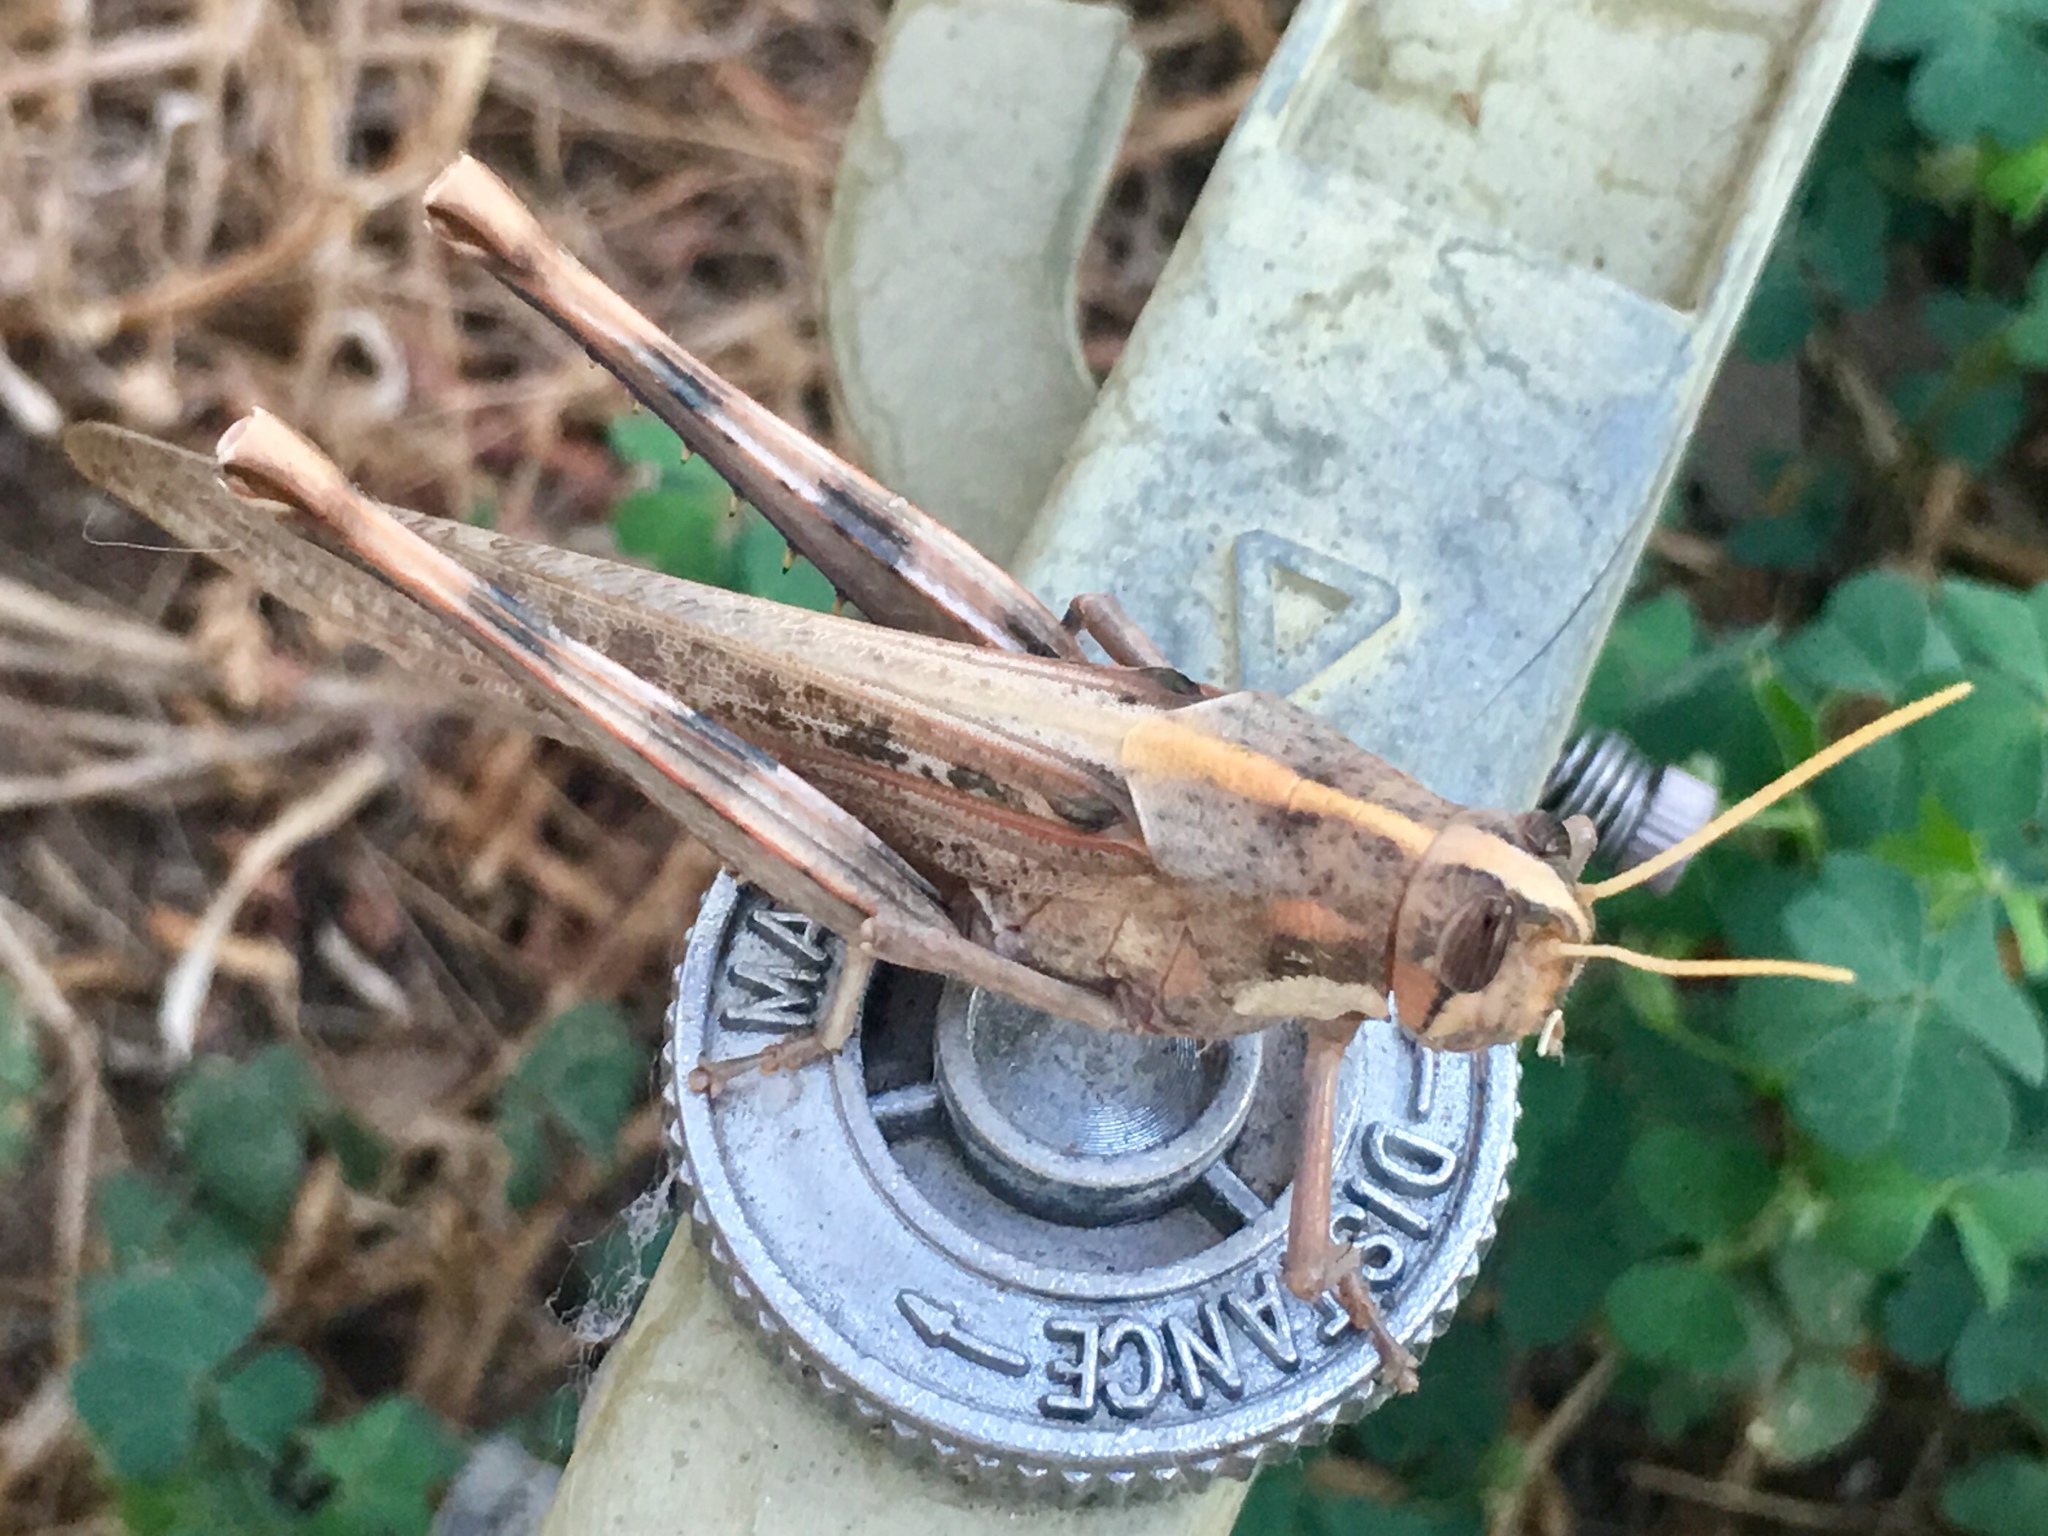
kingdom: Animalia
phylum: Arthropoda
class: Insecta
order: Orthoptera
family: Acrididae
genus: Schistocerca
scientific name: Schistocerca nitens
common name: Vagrant grasshopper
